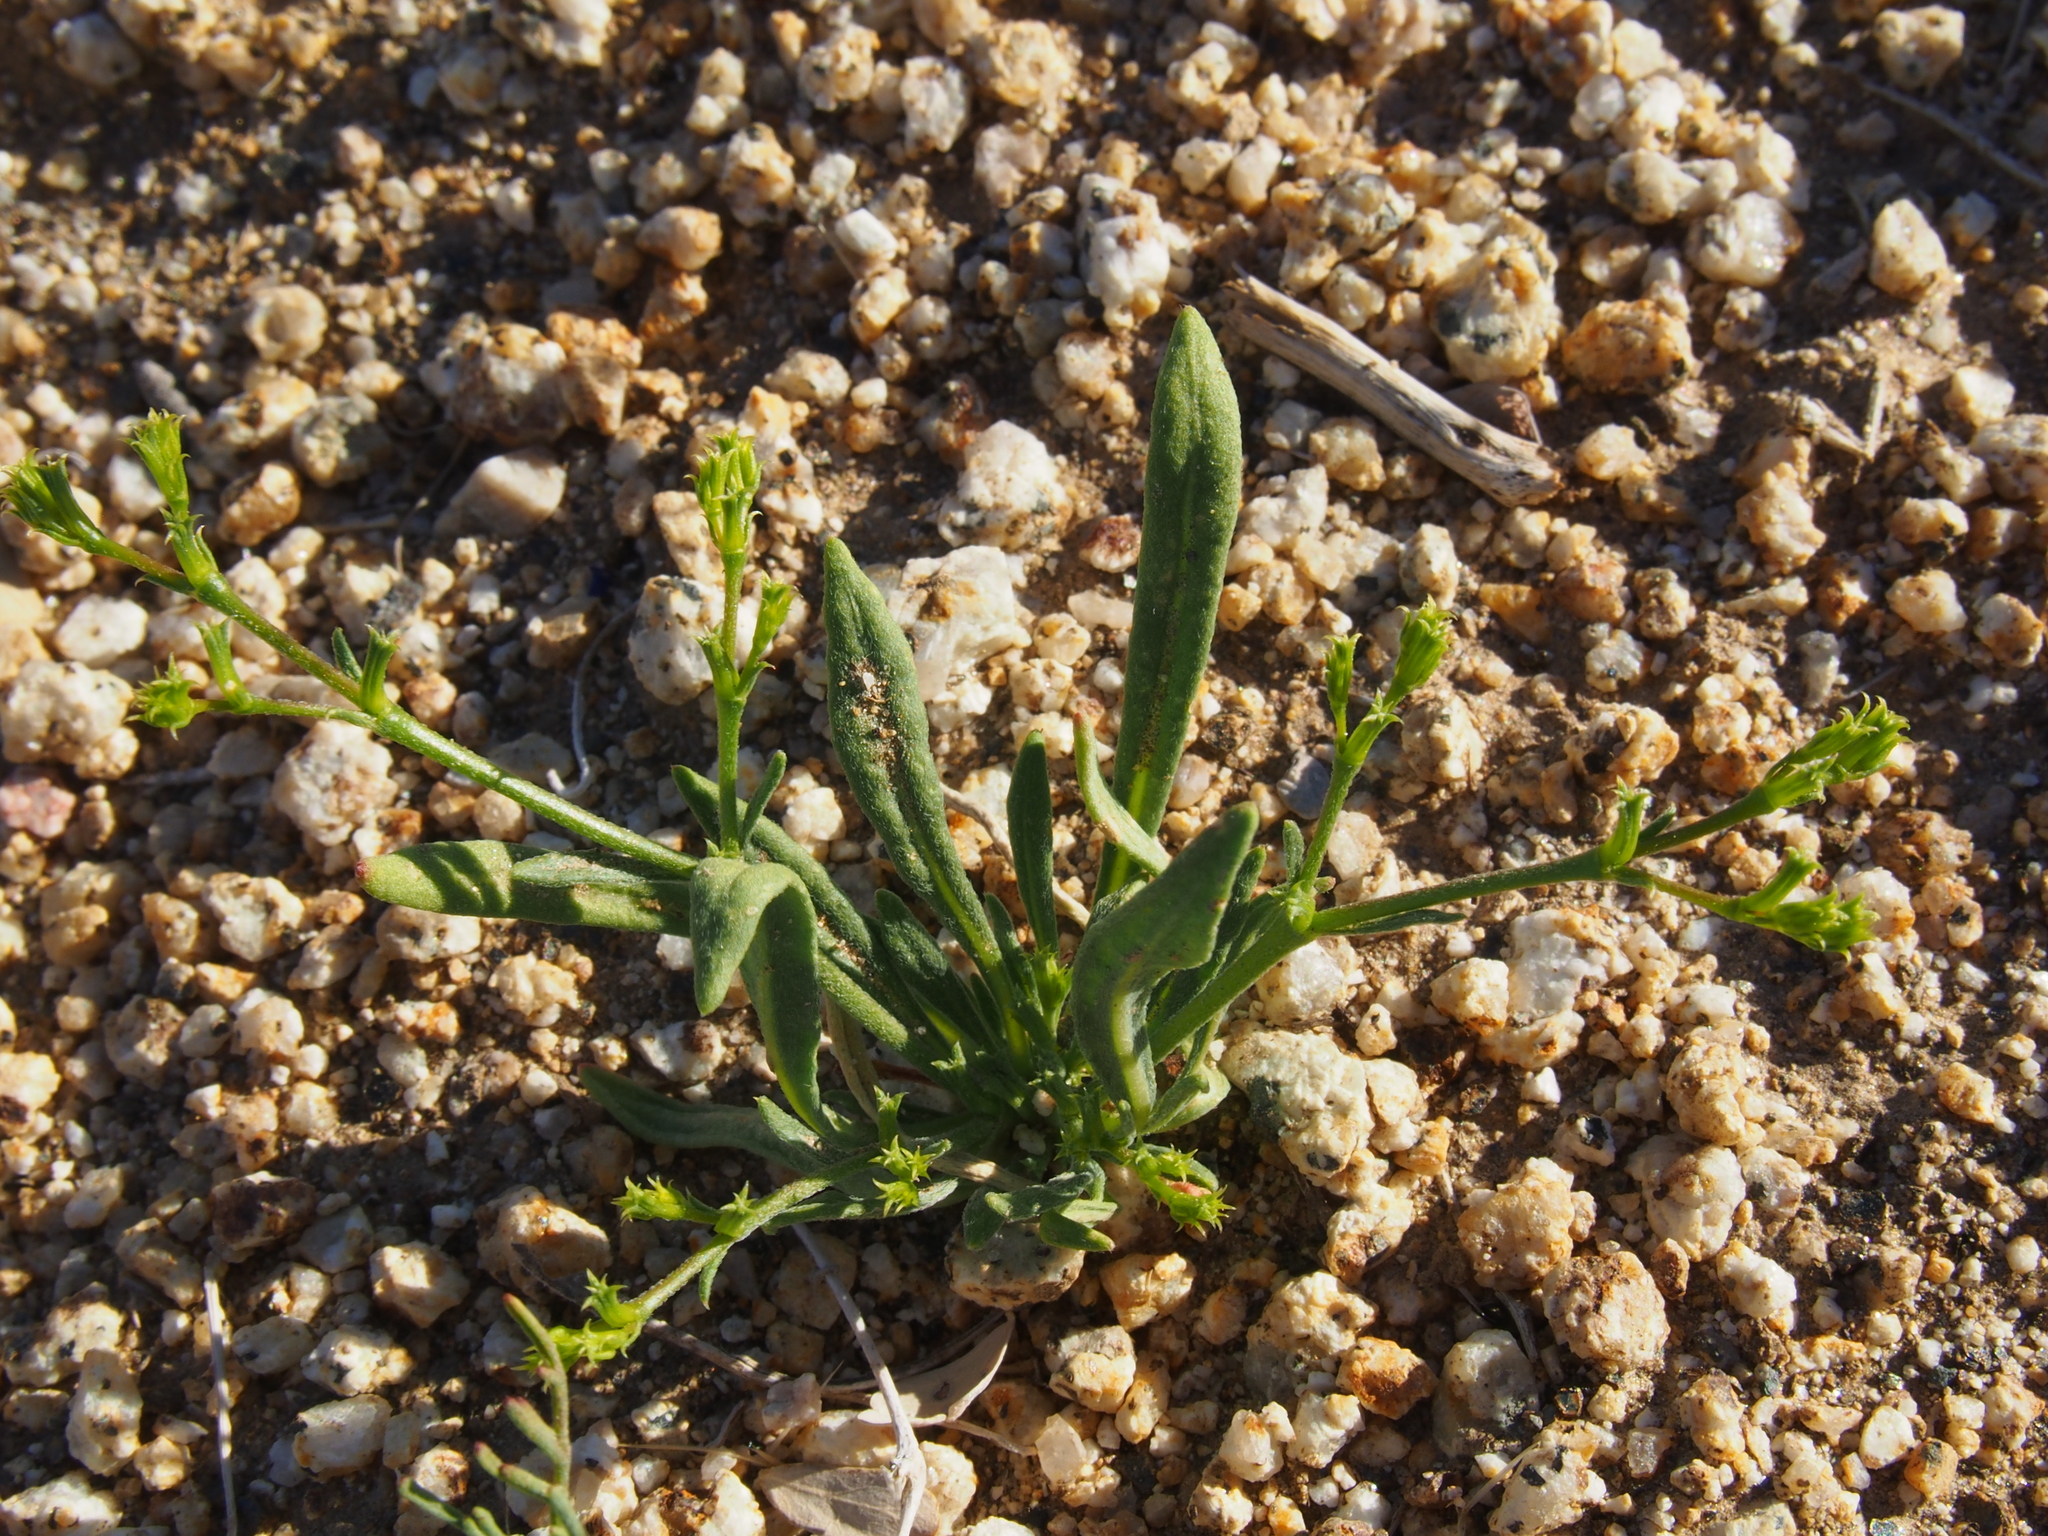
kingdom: Plantae
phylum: Tracheophyta
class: Magnoliopsida
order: Caryophyllales
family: Polygonaceae
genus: Chorizanthe
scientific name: Chorizanthe brevicornu
